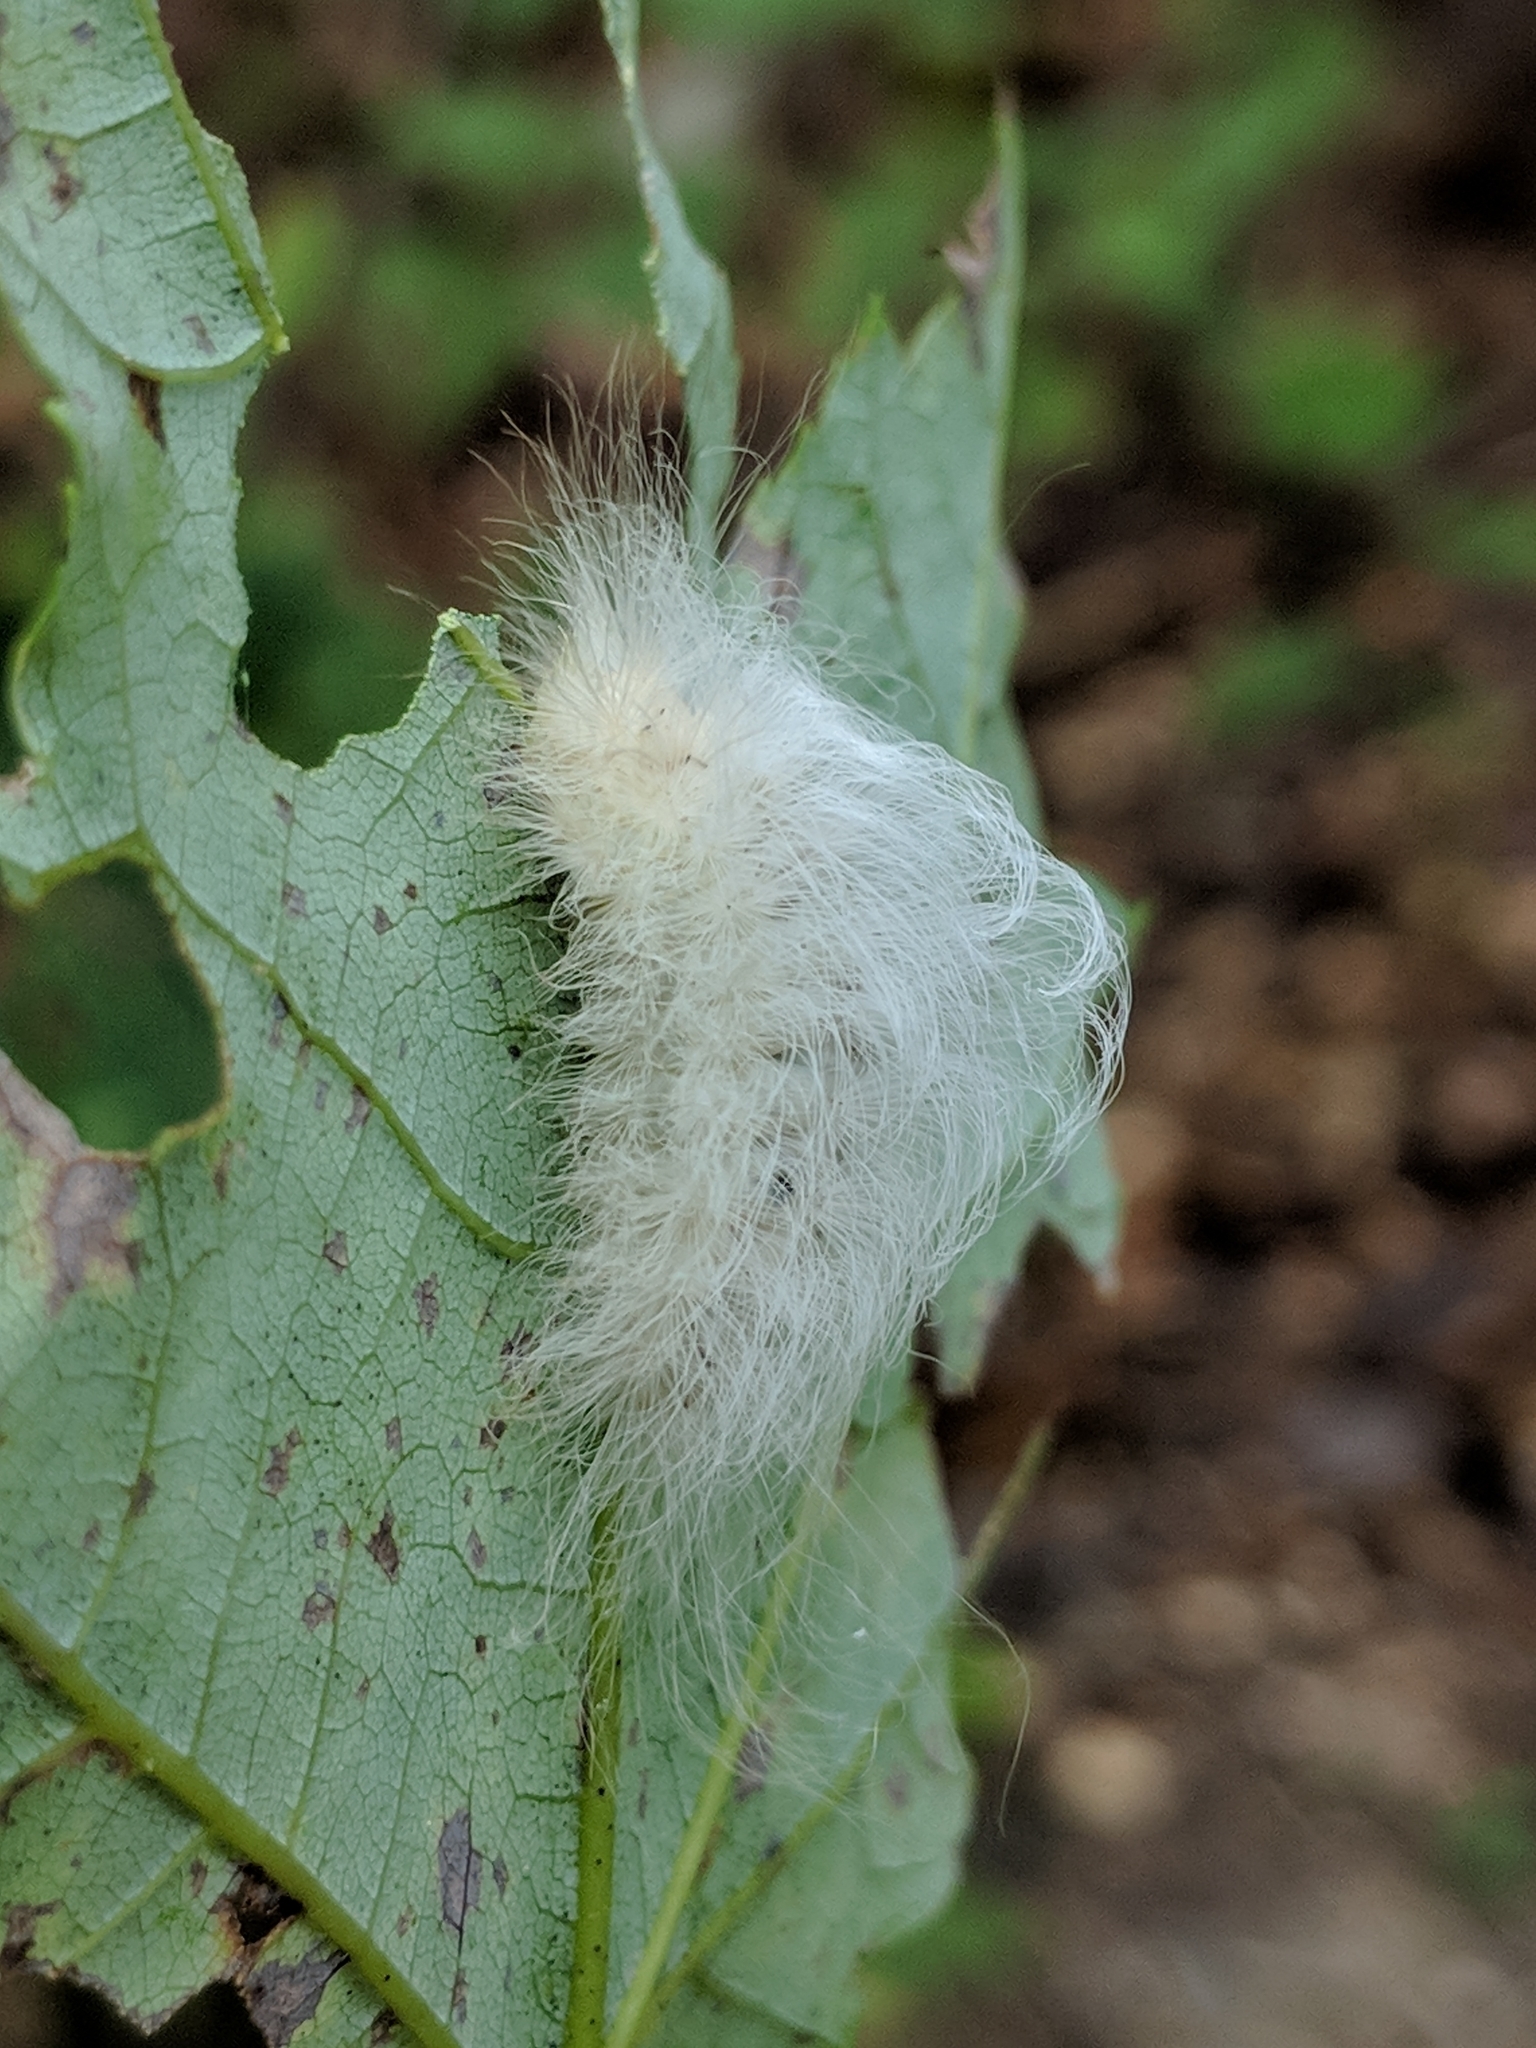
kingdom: Animalia
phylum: Arthropoda
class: Insecta
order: Lepidoptera
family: Megalopygidae
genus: Megalopyge
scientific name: Megalopyge crispata
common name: Black-waved flannel moth
